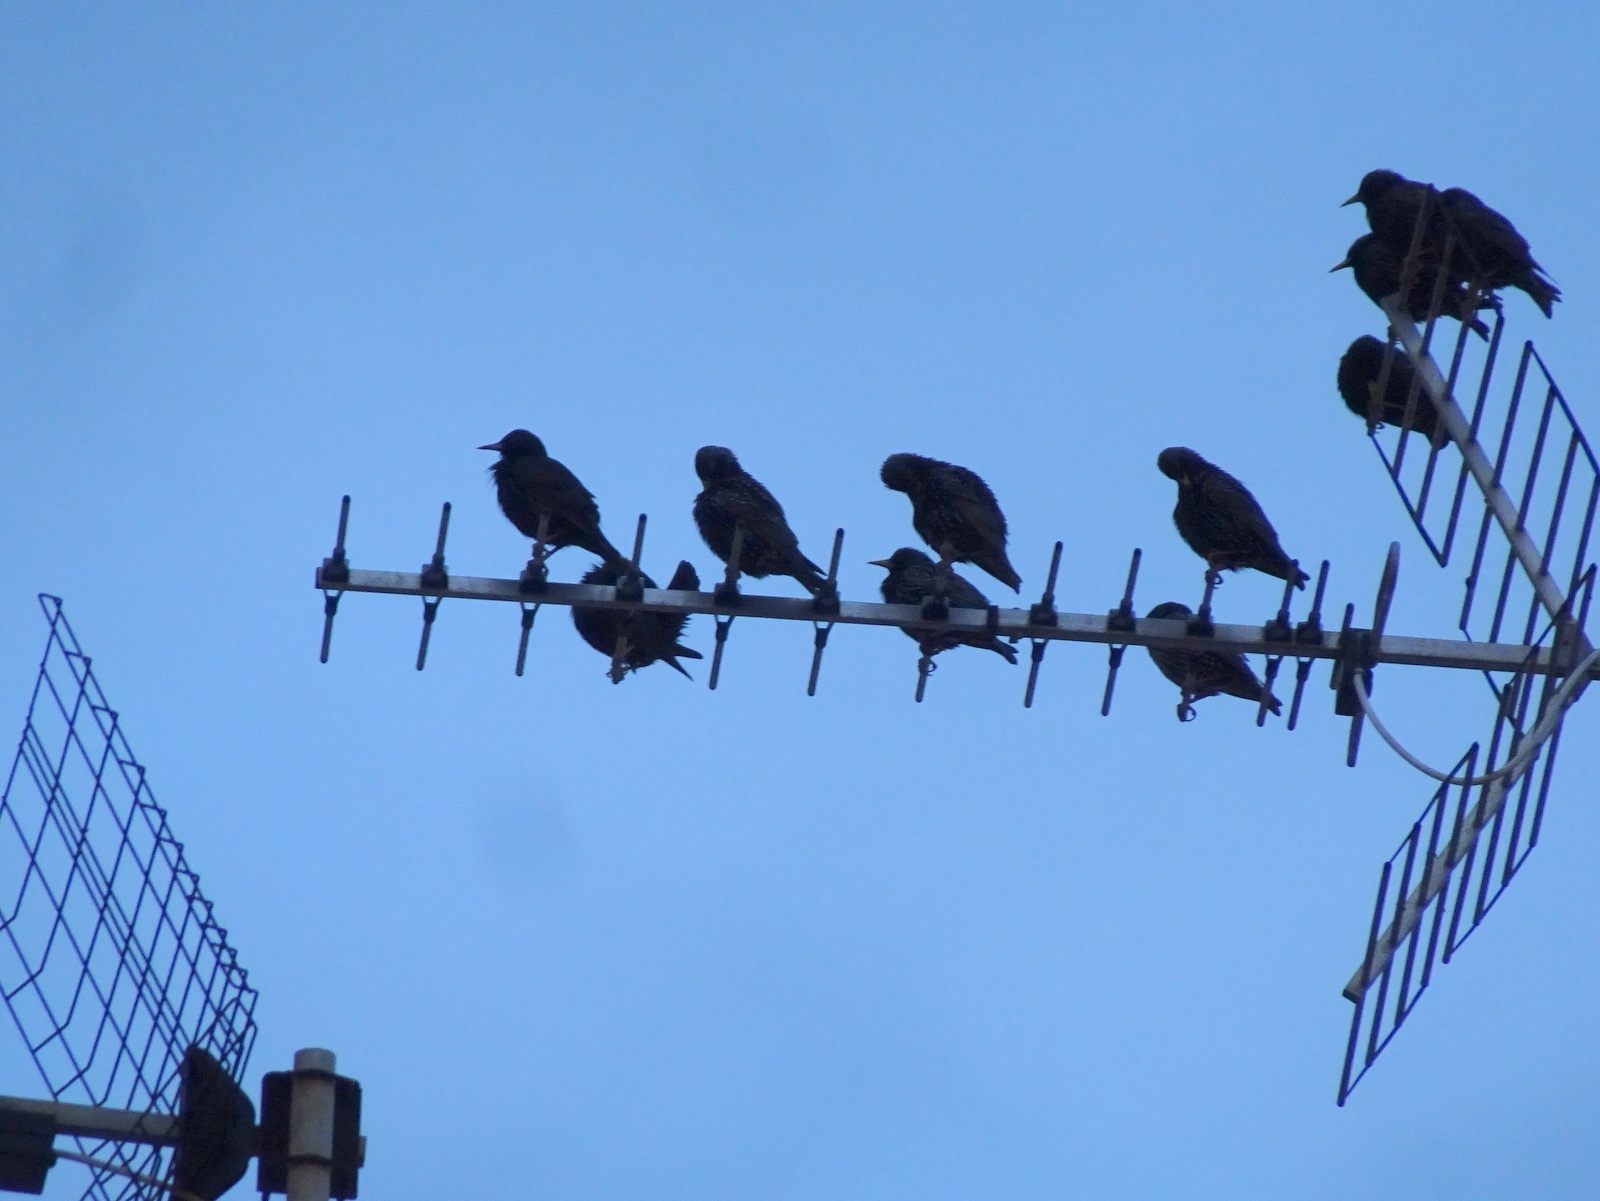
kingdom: Animalia
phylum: Chordata
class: Aves
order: Passeriformes
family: Sturnidae
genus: Sturnus
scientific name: Sturnus vulgaris
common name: Common starling
